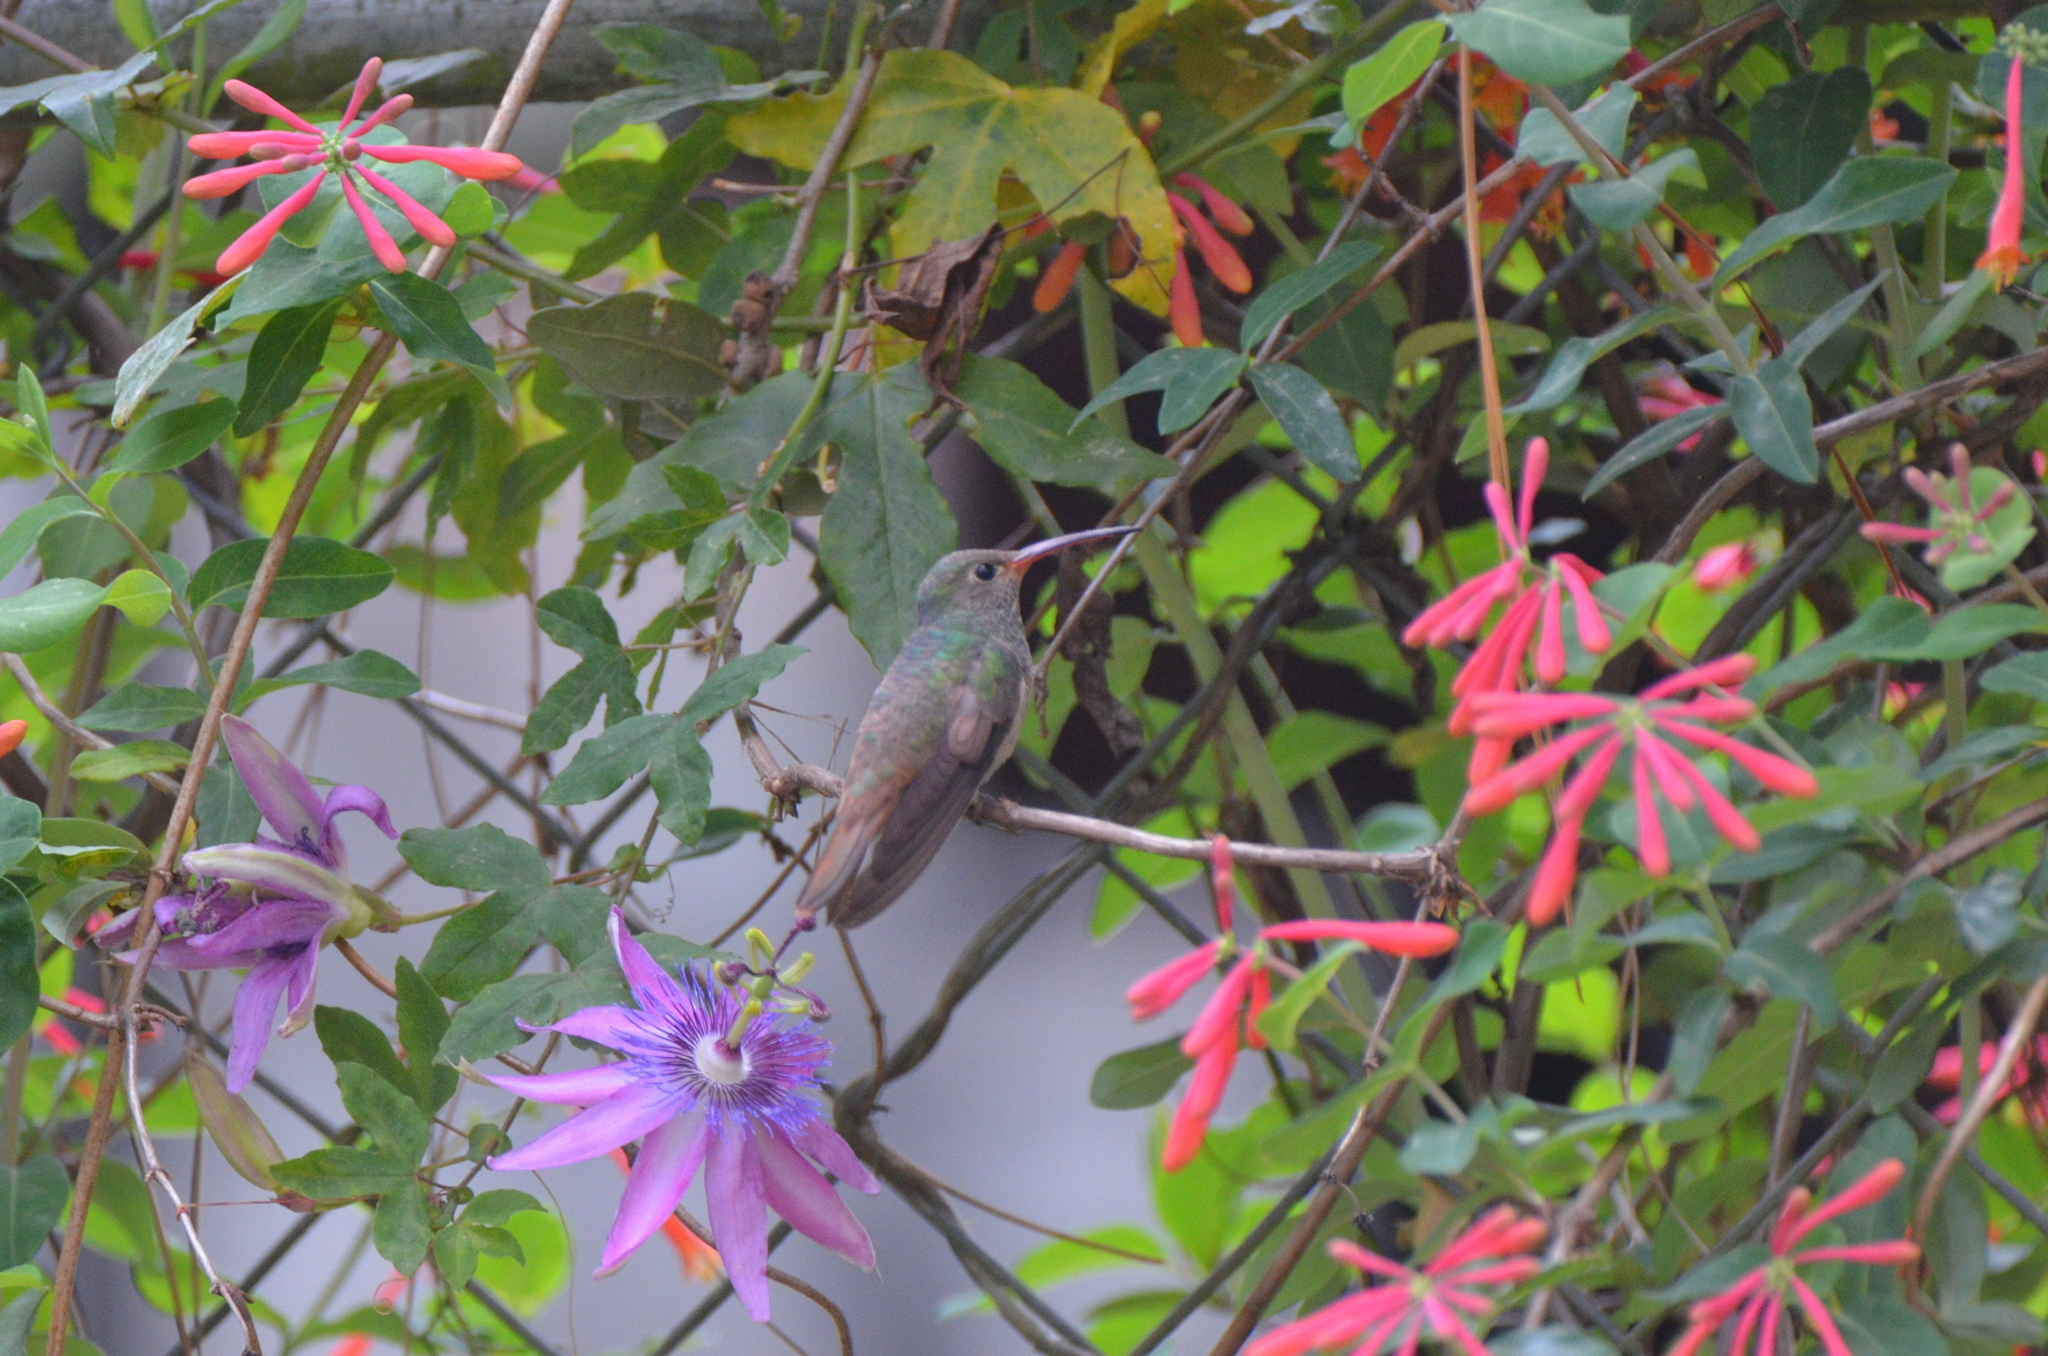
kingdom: Animalia
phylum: Chordata
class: Aves
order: Apodiformes
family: Trochilidae
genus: Amazilia
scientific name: Amazilia yucatanensis
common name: Buff-bellied hummingbird
